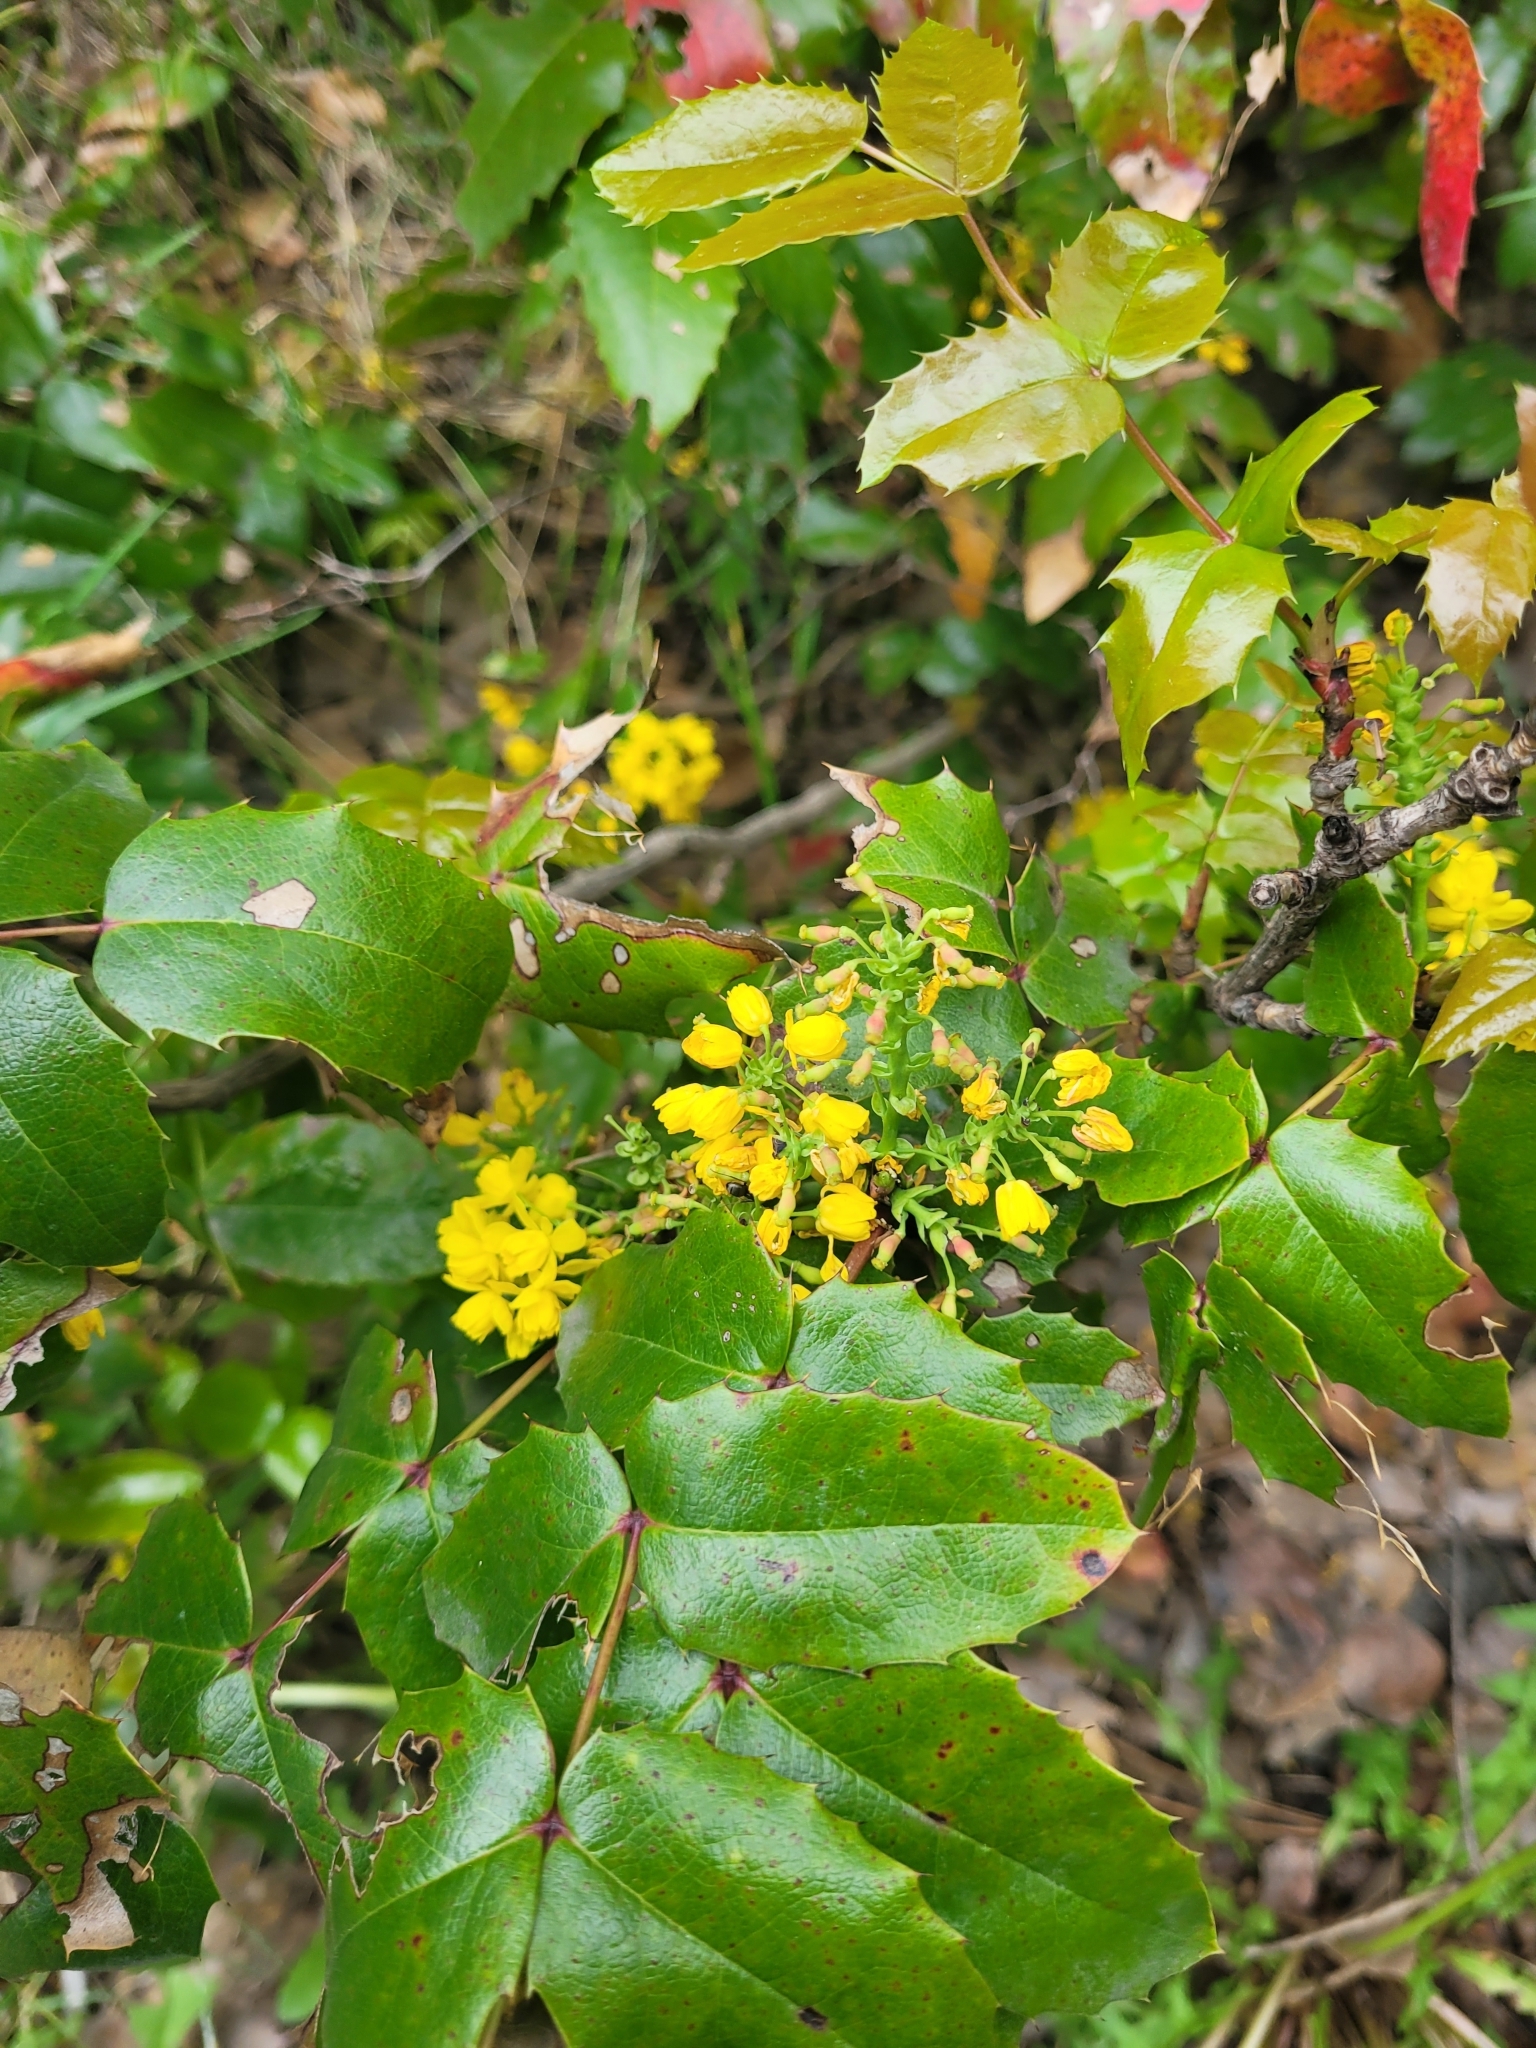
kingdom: Plantae
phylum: Tracheophyta
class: Magnoliopsida
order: Ranunculales
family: Berberidaceae
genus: Mahonia
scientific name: Mahonia aquifolium
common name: Oregon-grape
